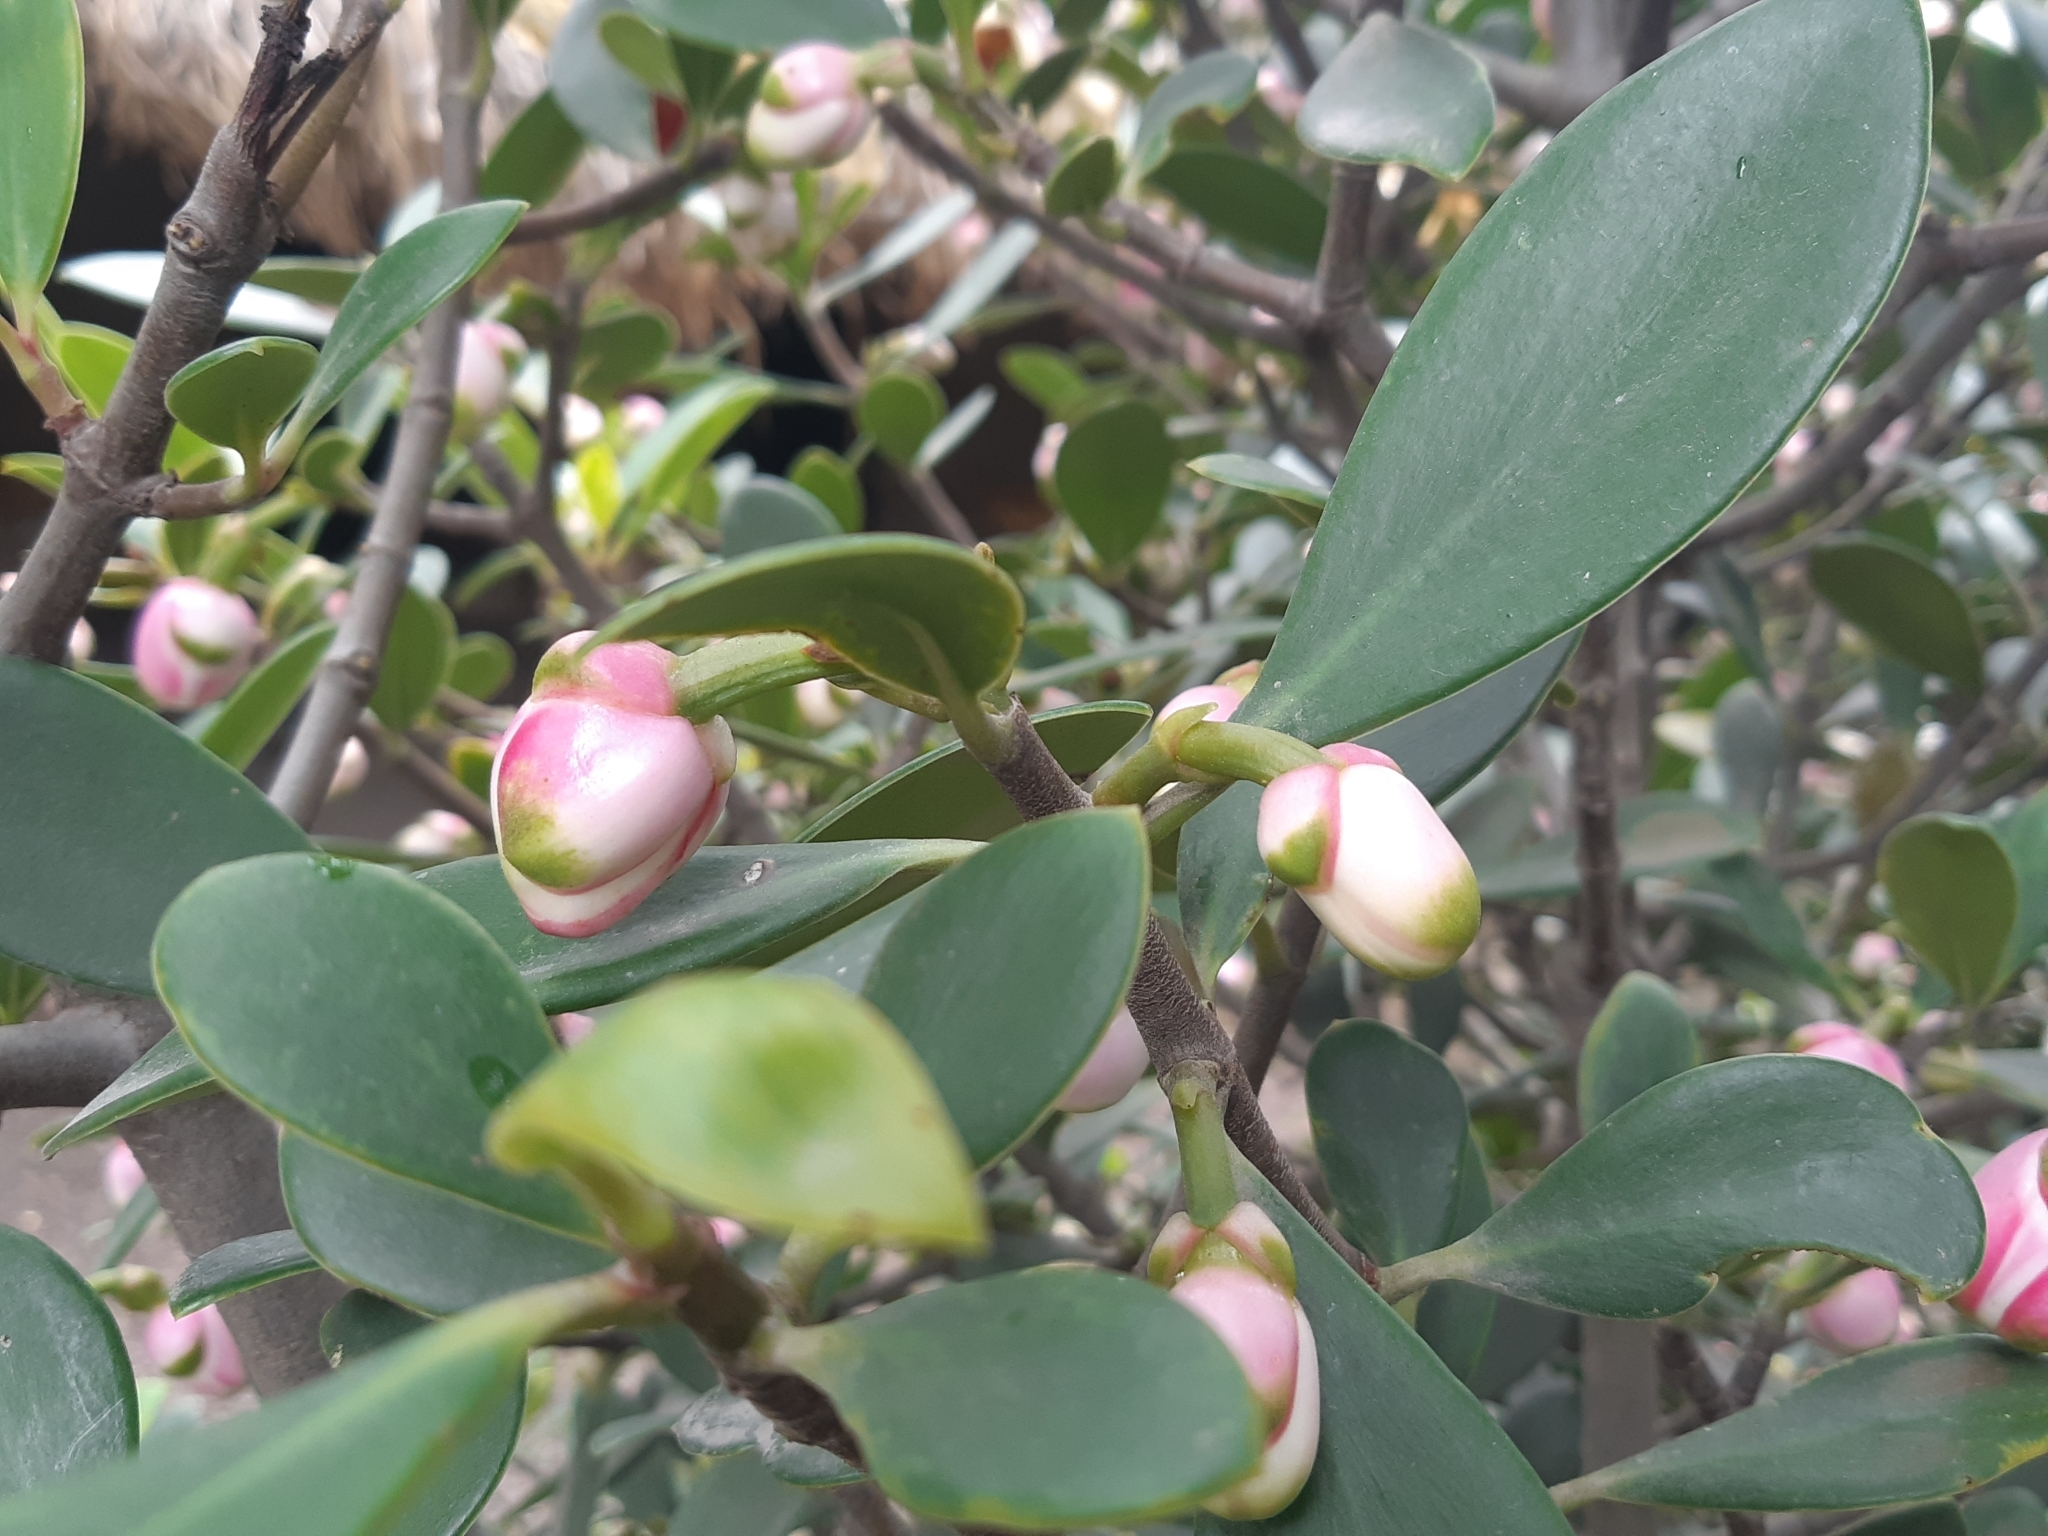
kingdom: Plantae
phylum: Tracheophyta
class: Magnoliopsida
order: Malpighiales
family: Clusiaceae
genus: Clusia
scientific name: Clusia orthoneura
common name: Porcelain-flower
